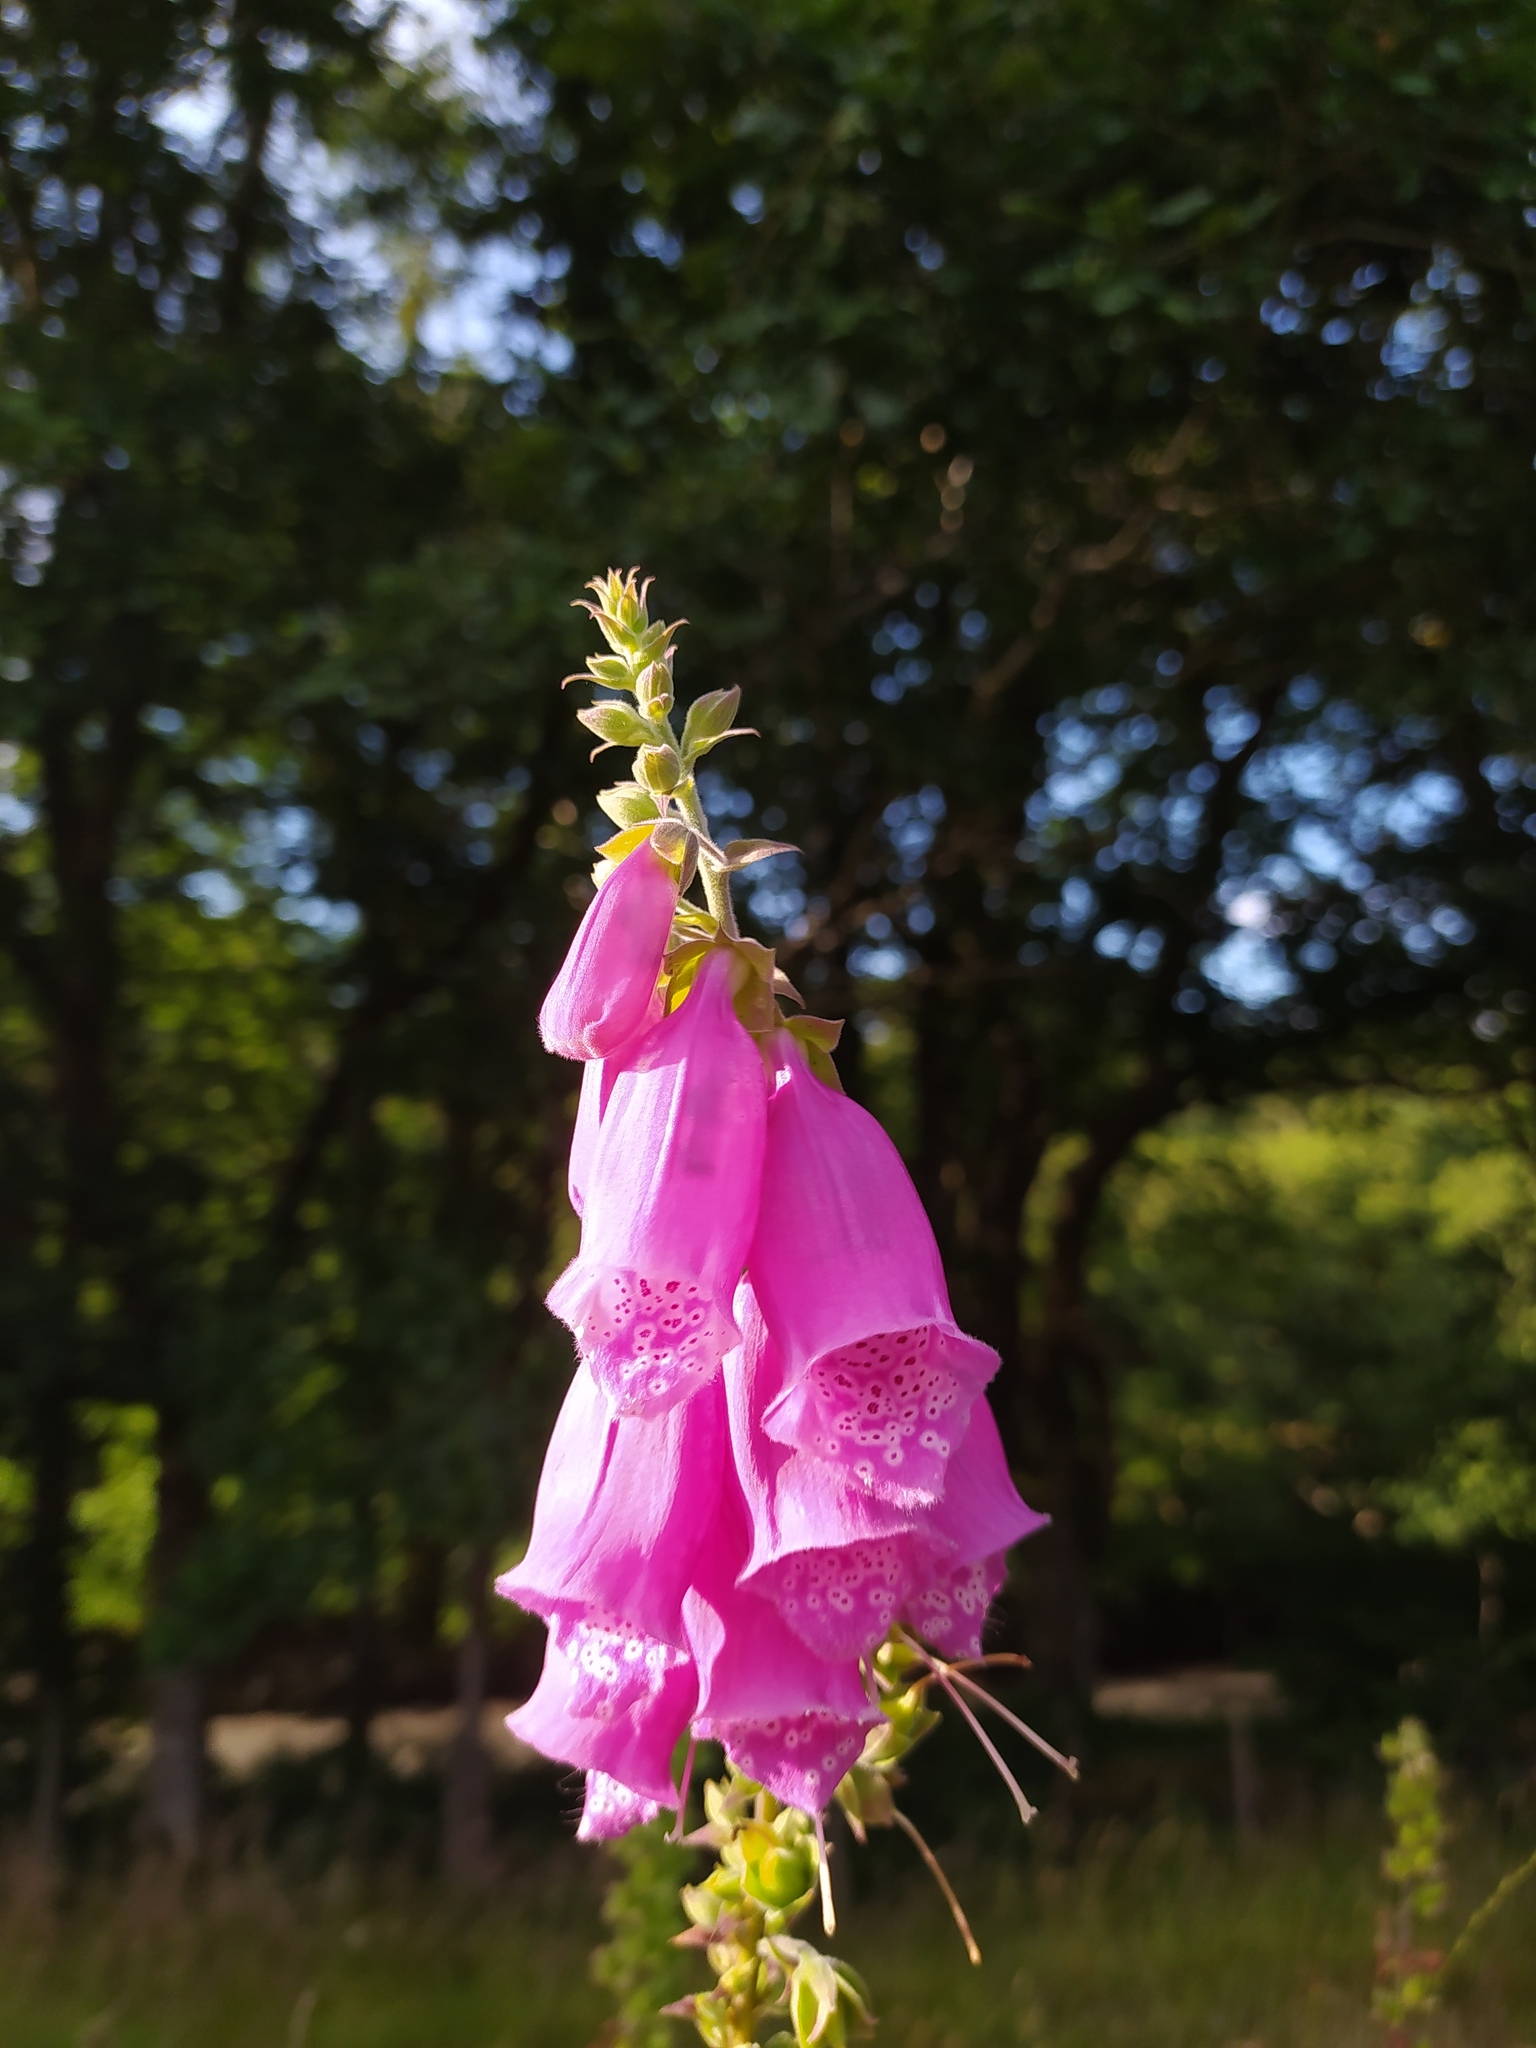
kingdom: Plantae
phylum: Tracheophyta
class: Magnoliopsida
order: Lamiales
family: Plantaginaceae
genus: Digitalis
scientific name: Digitalis purpurea
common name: Foxglove
